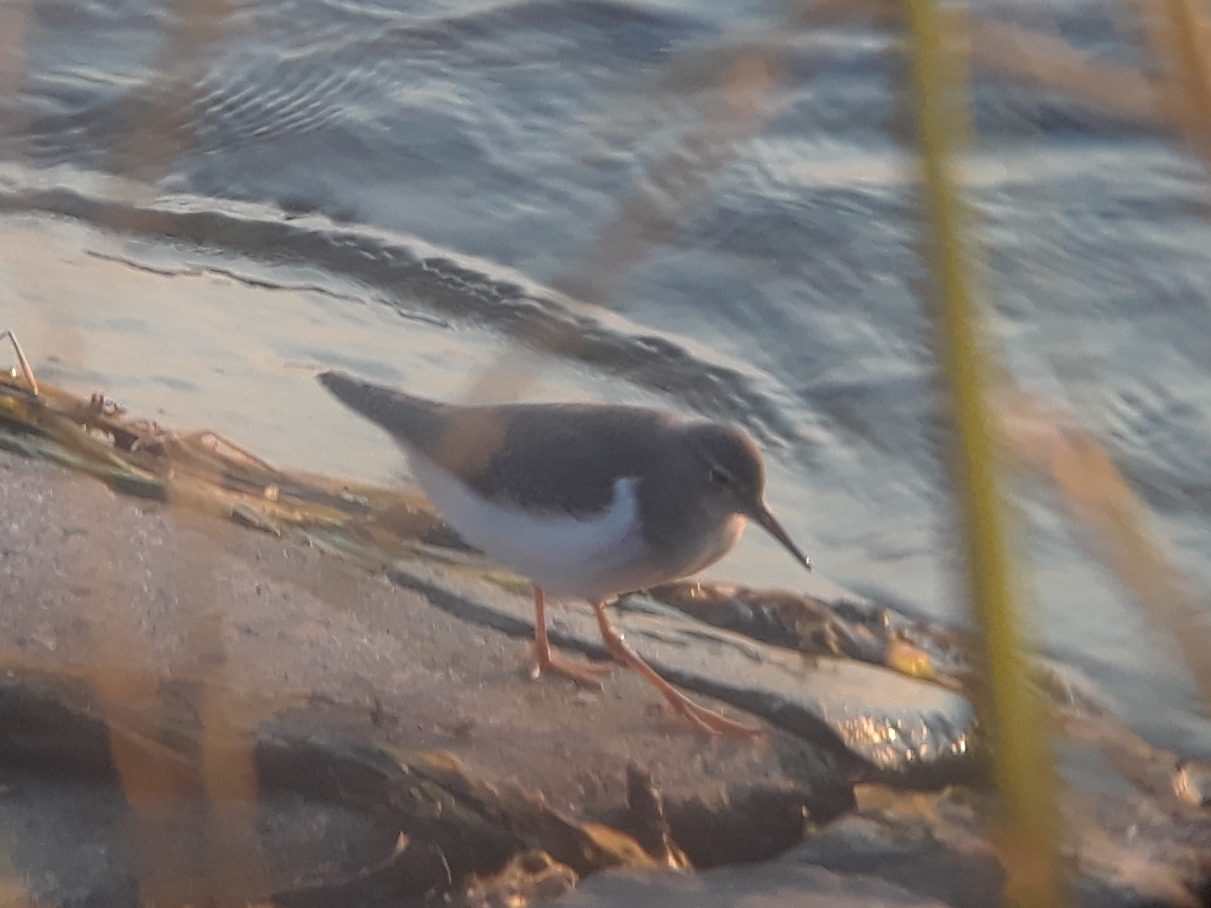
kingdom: Animalia
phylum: Chordata
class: Aves
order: Charadriiformes
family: Scolopacidae
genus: Actitis
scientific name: Actitis macularius
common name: Spotted sandpiper
